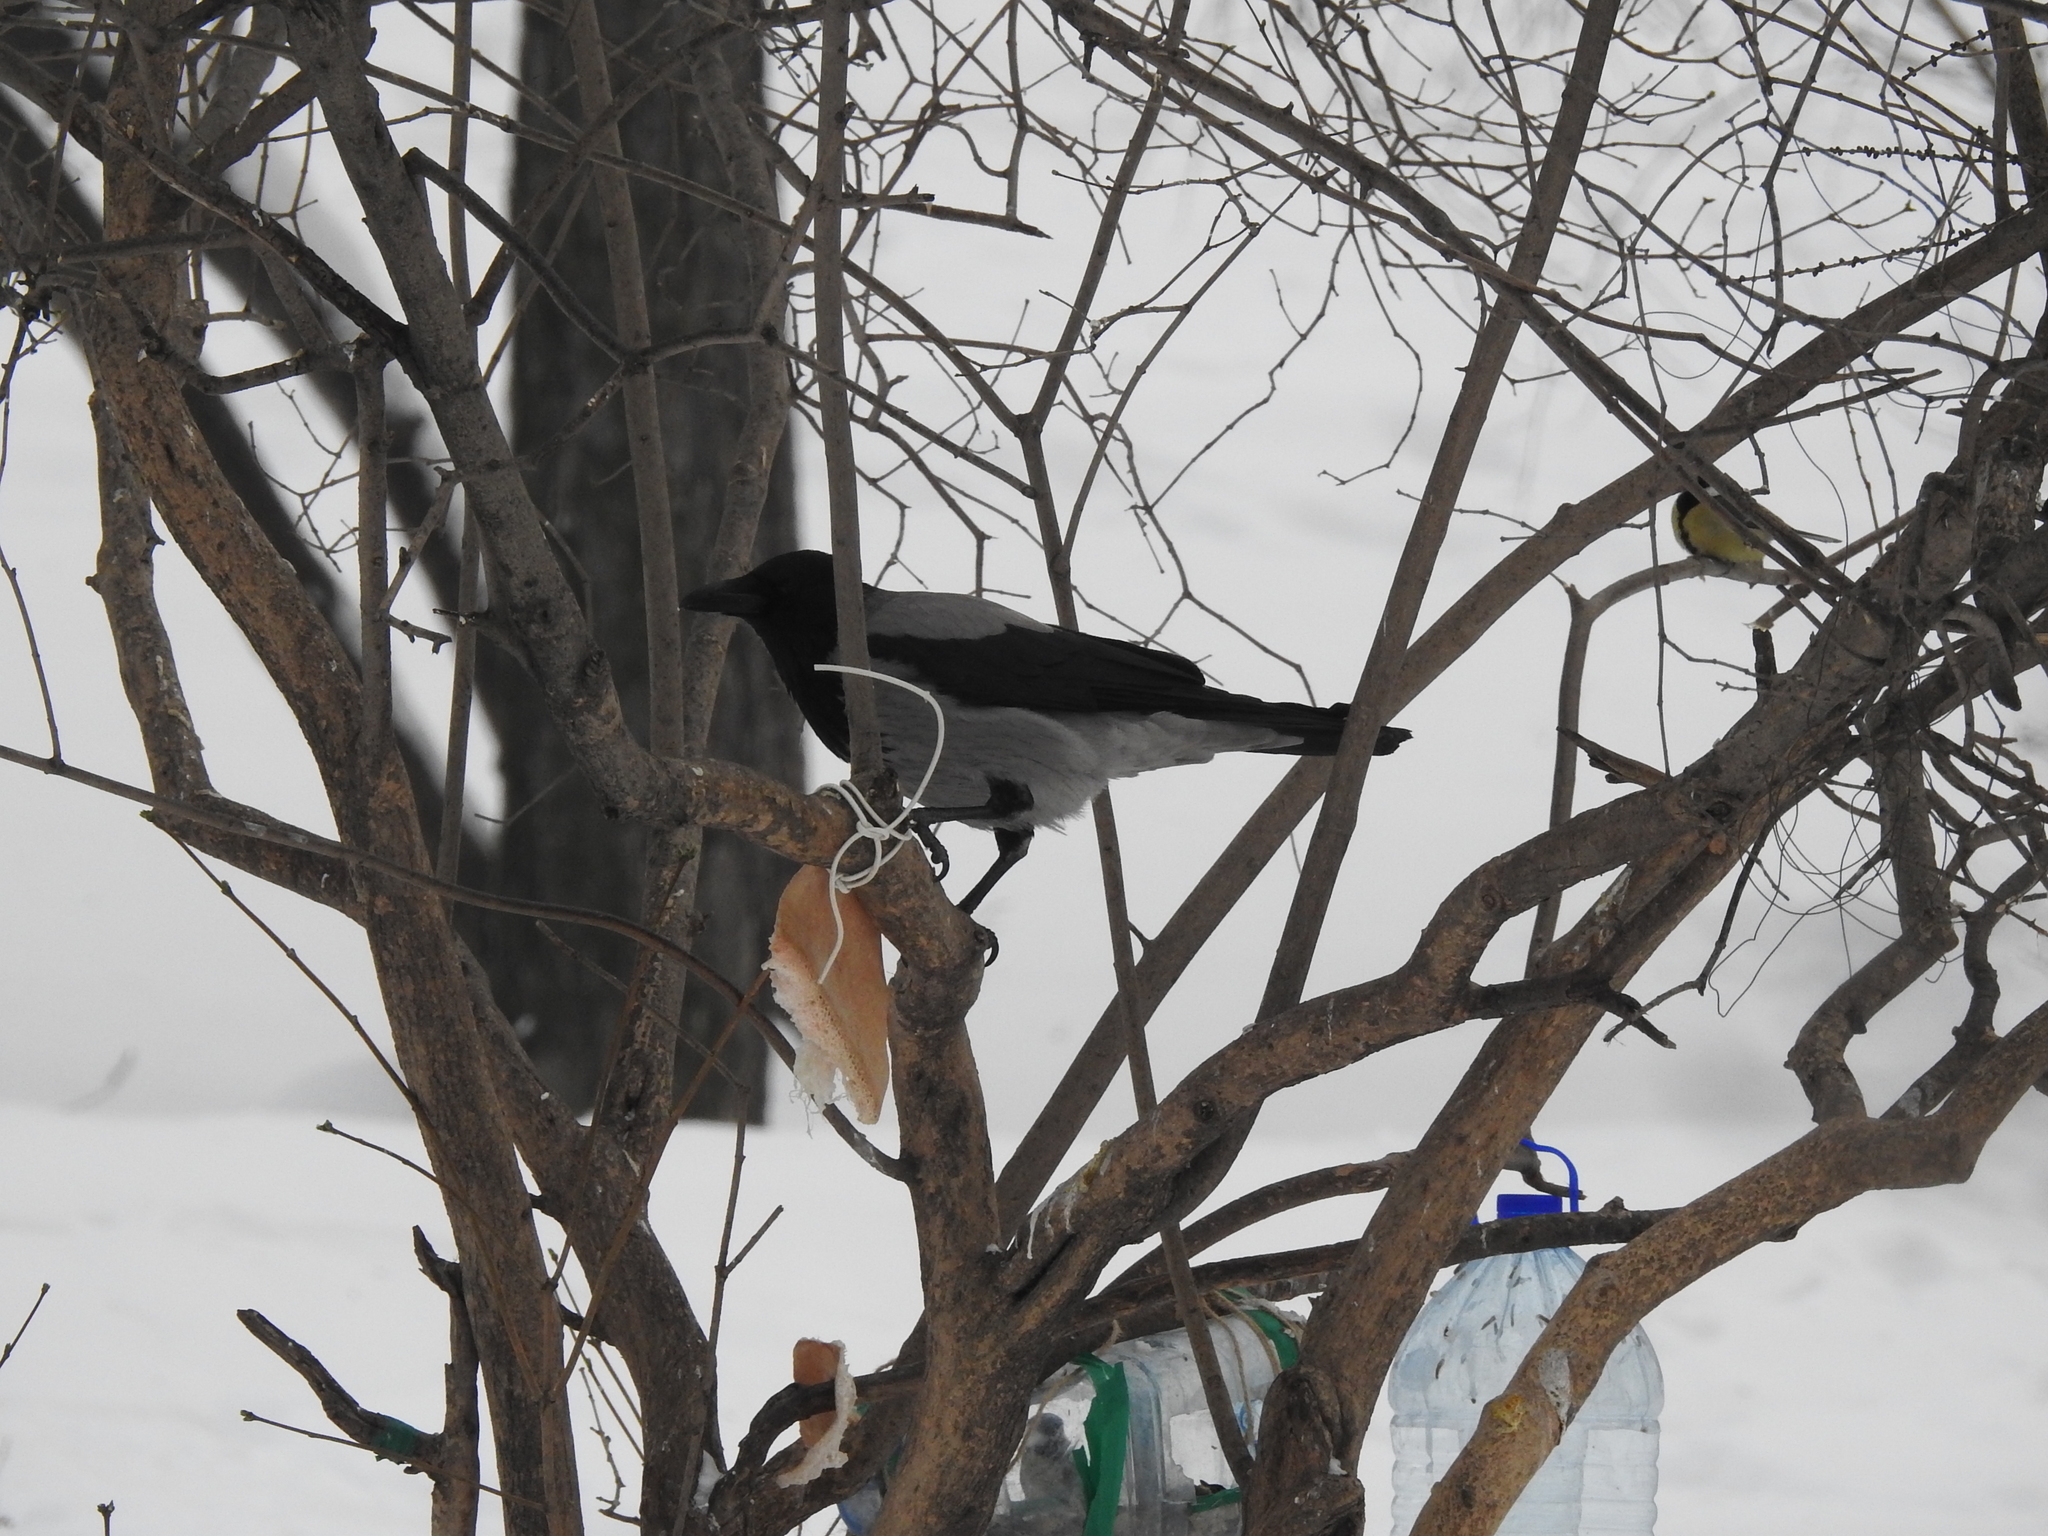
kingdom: Animalia
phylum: Chordata
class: Aves
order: Passeriformes
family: Corvidae
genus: Corvus
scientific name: Corvus cornix
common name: Hooded crow
